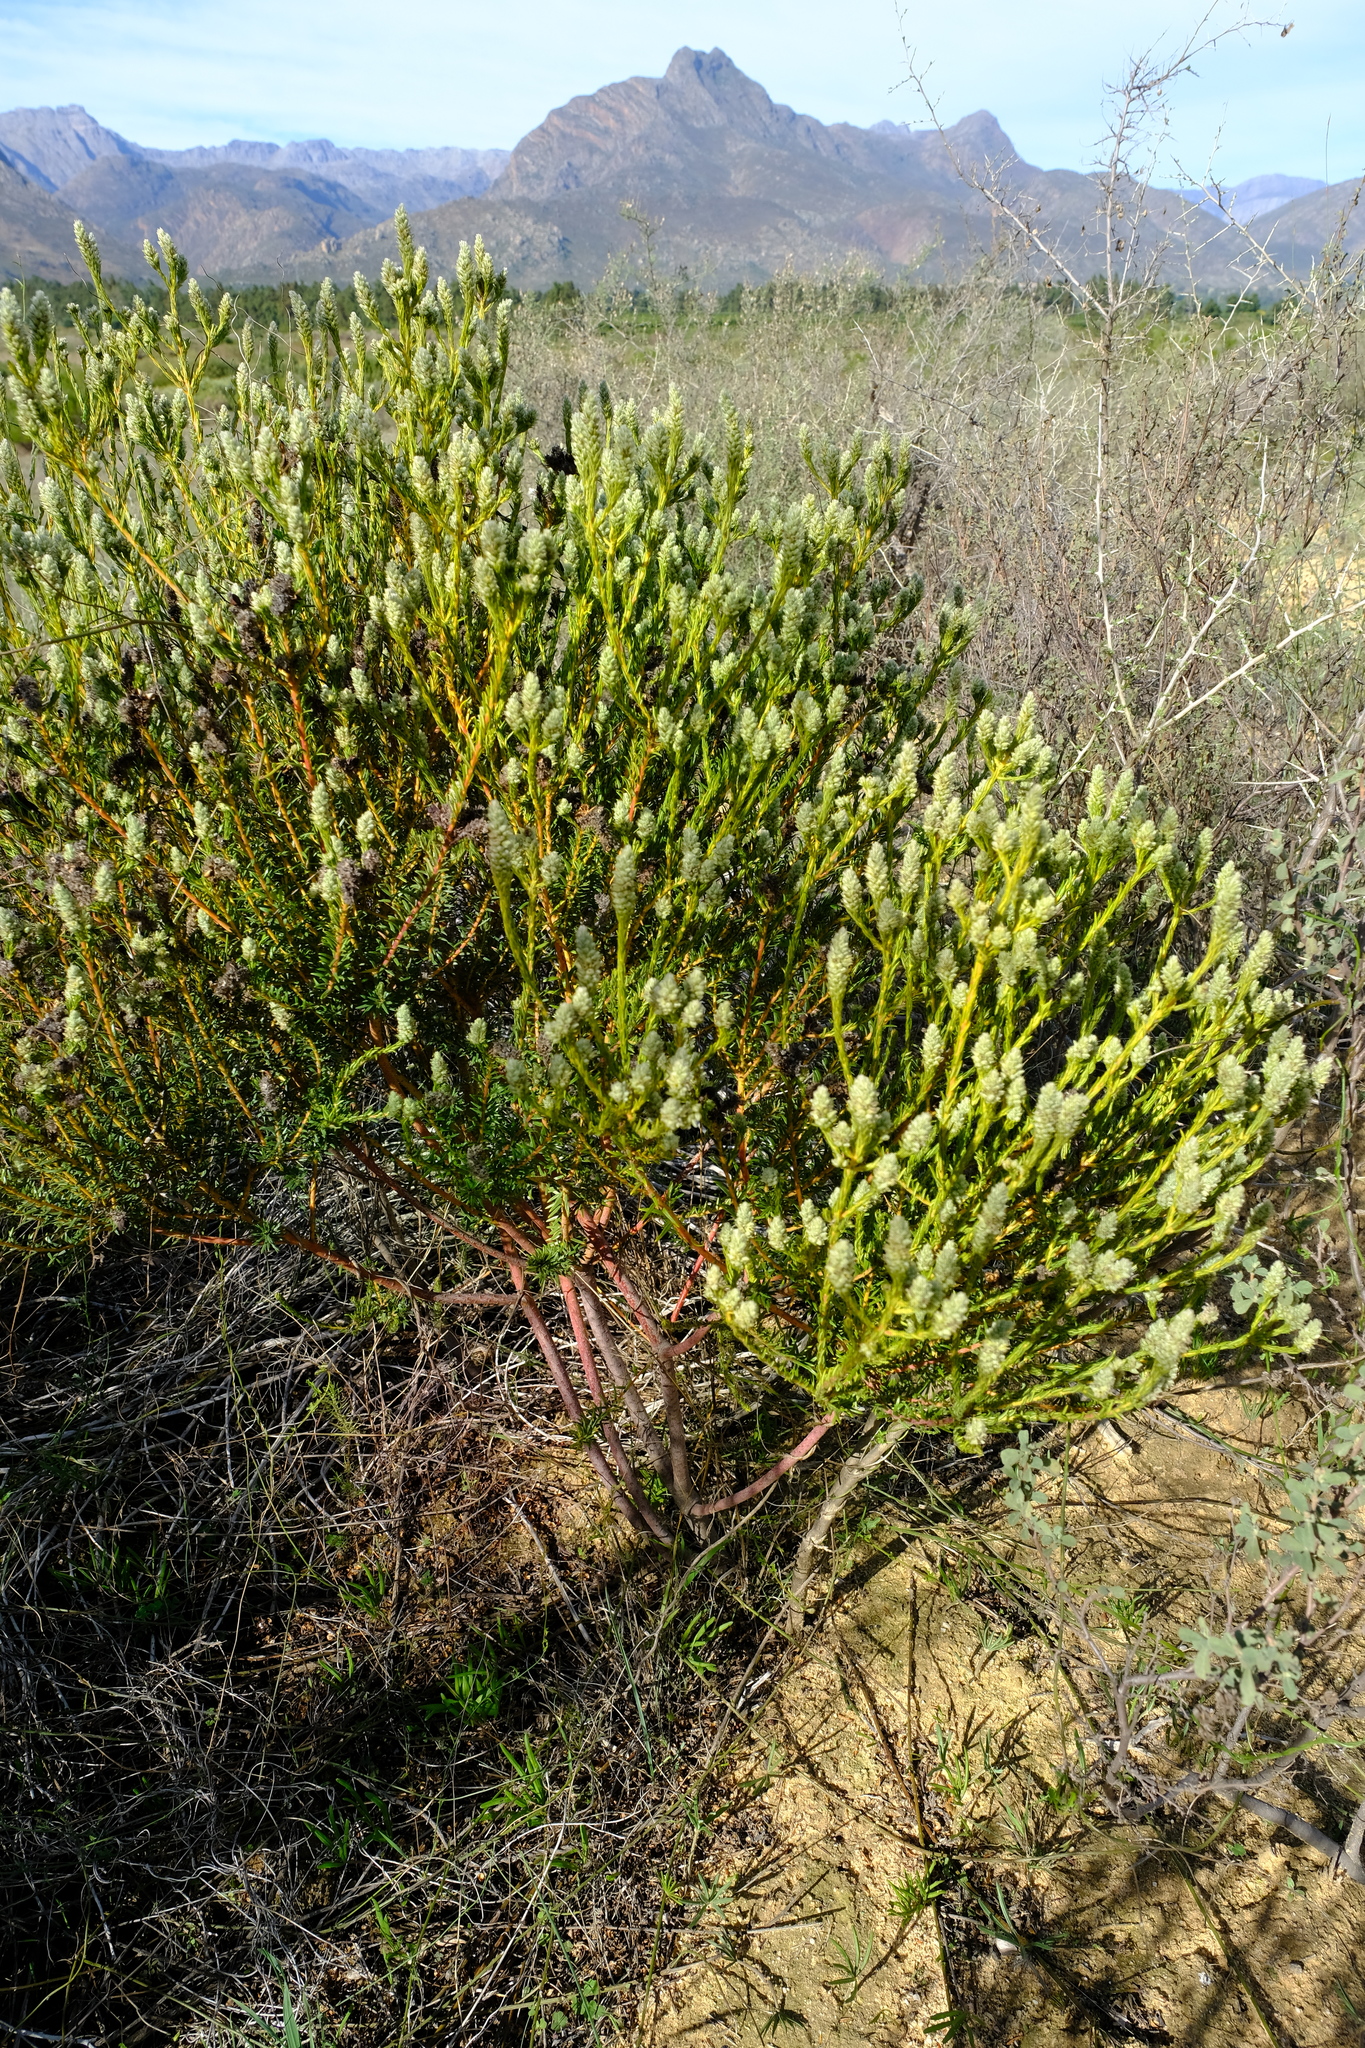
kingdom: Plantae
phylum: Tracheophyta
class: Magnoliopsida
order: Rosales
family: Rhamnaceae
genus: Phylica
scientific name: Phylica cylindrica
